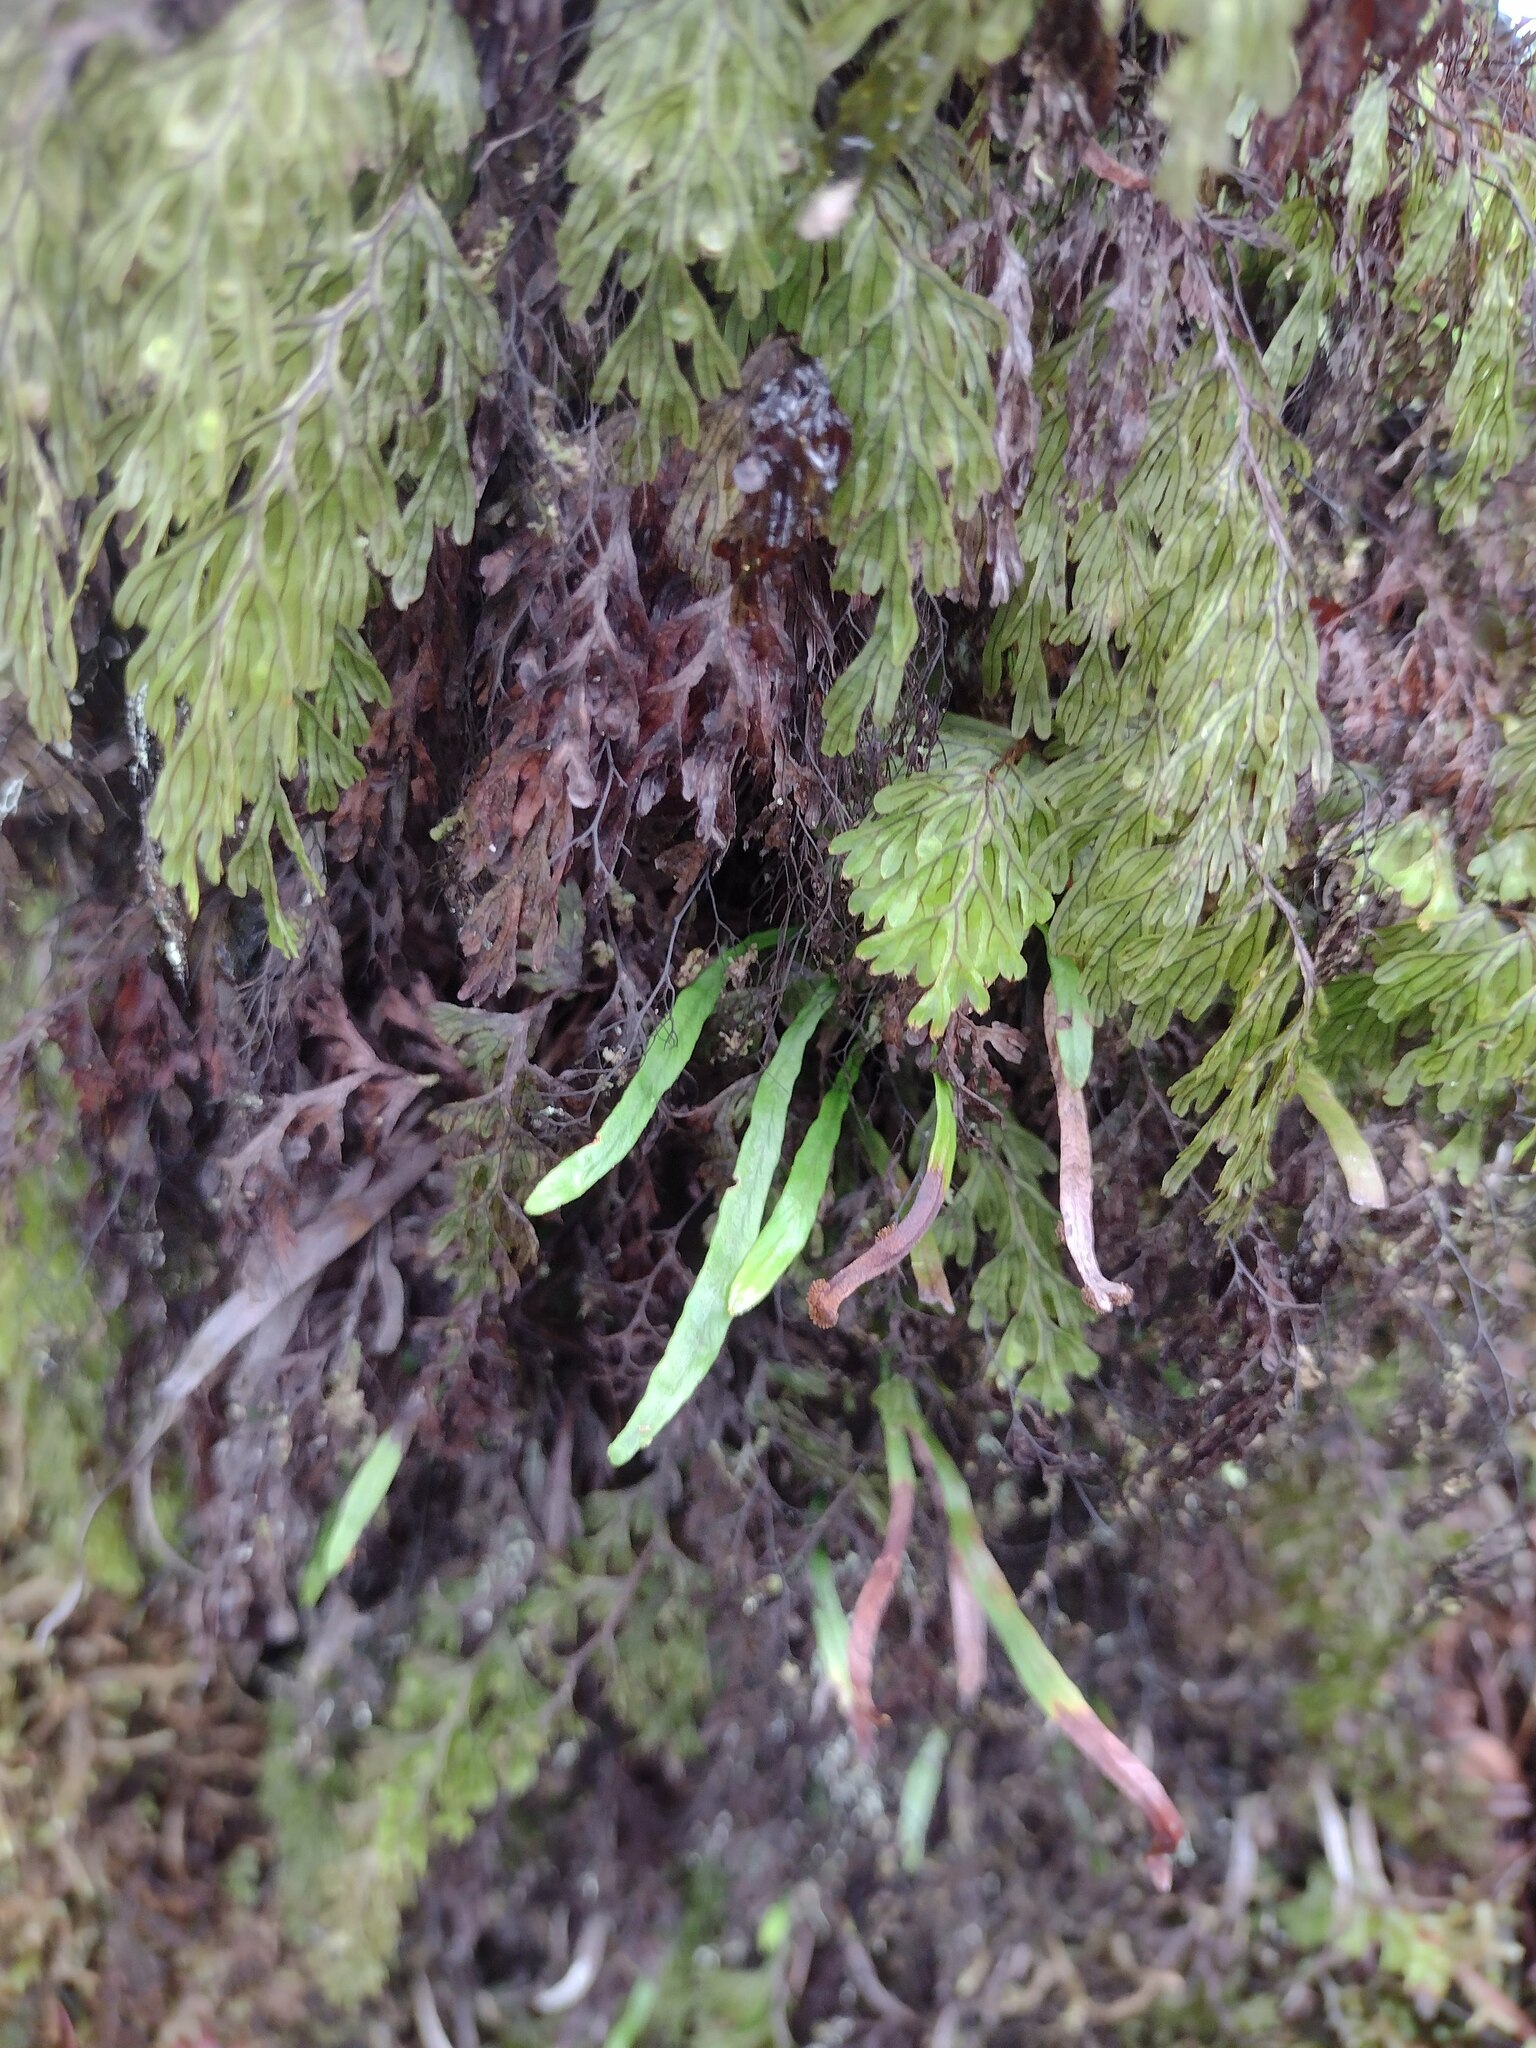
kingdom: Plantae
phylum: Tracheophyta
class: Polypodiopsida
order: Polypodiales
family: Polypodiaceae
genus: Adenophorus
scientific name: Adenophorus tenellus
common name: Kolokolo
